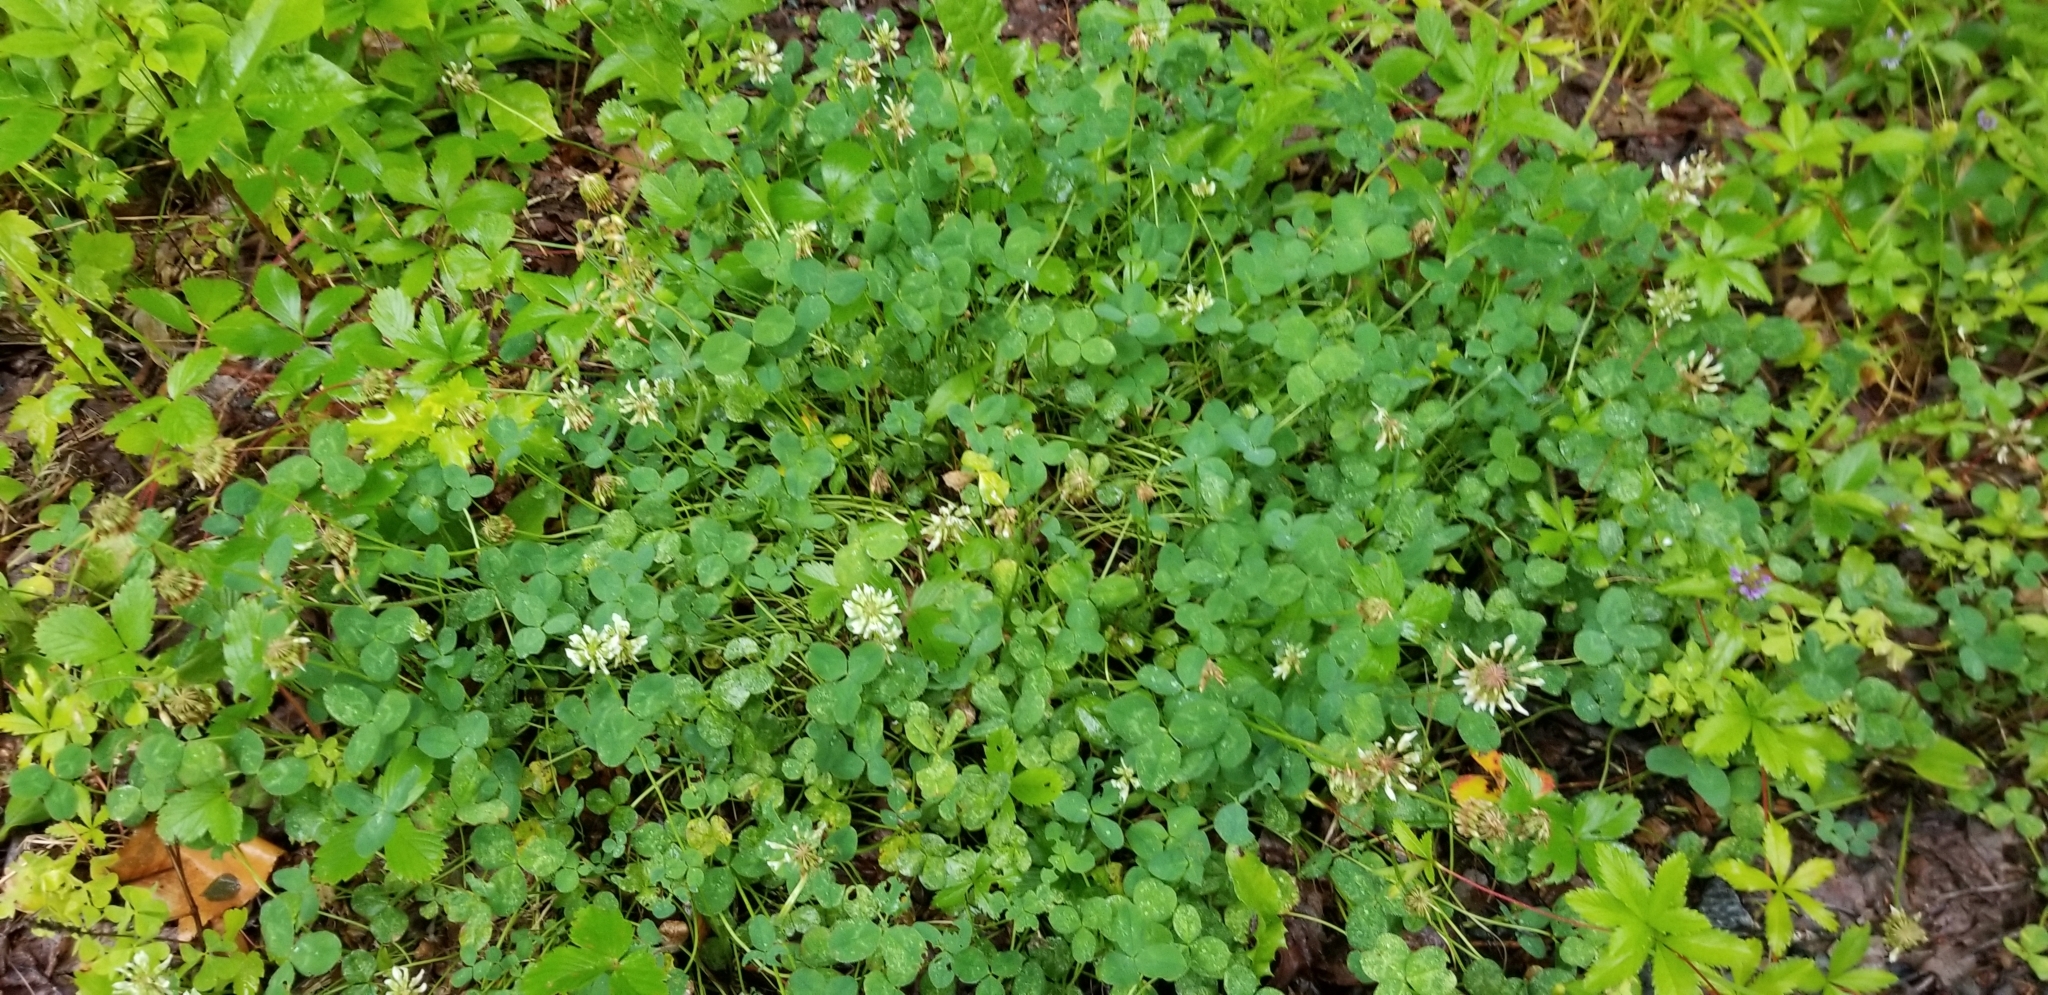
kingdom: Plantae
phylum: Tracheophyta
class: Magnoliopsida
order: Fabales
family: Fabaceae
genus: Trifolium
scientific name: Trifolium repens
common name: White clover
